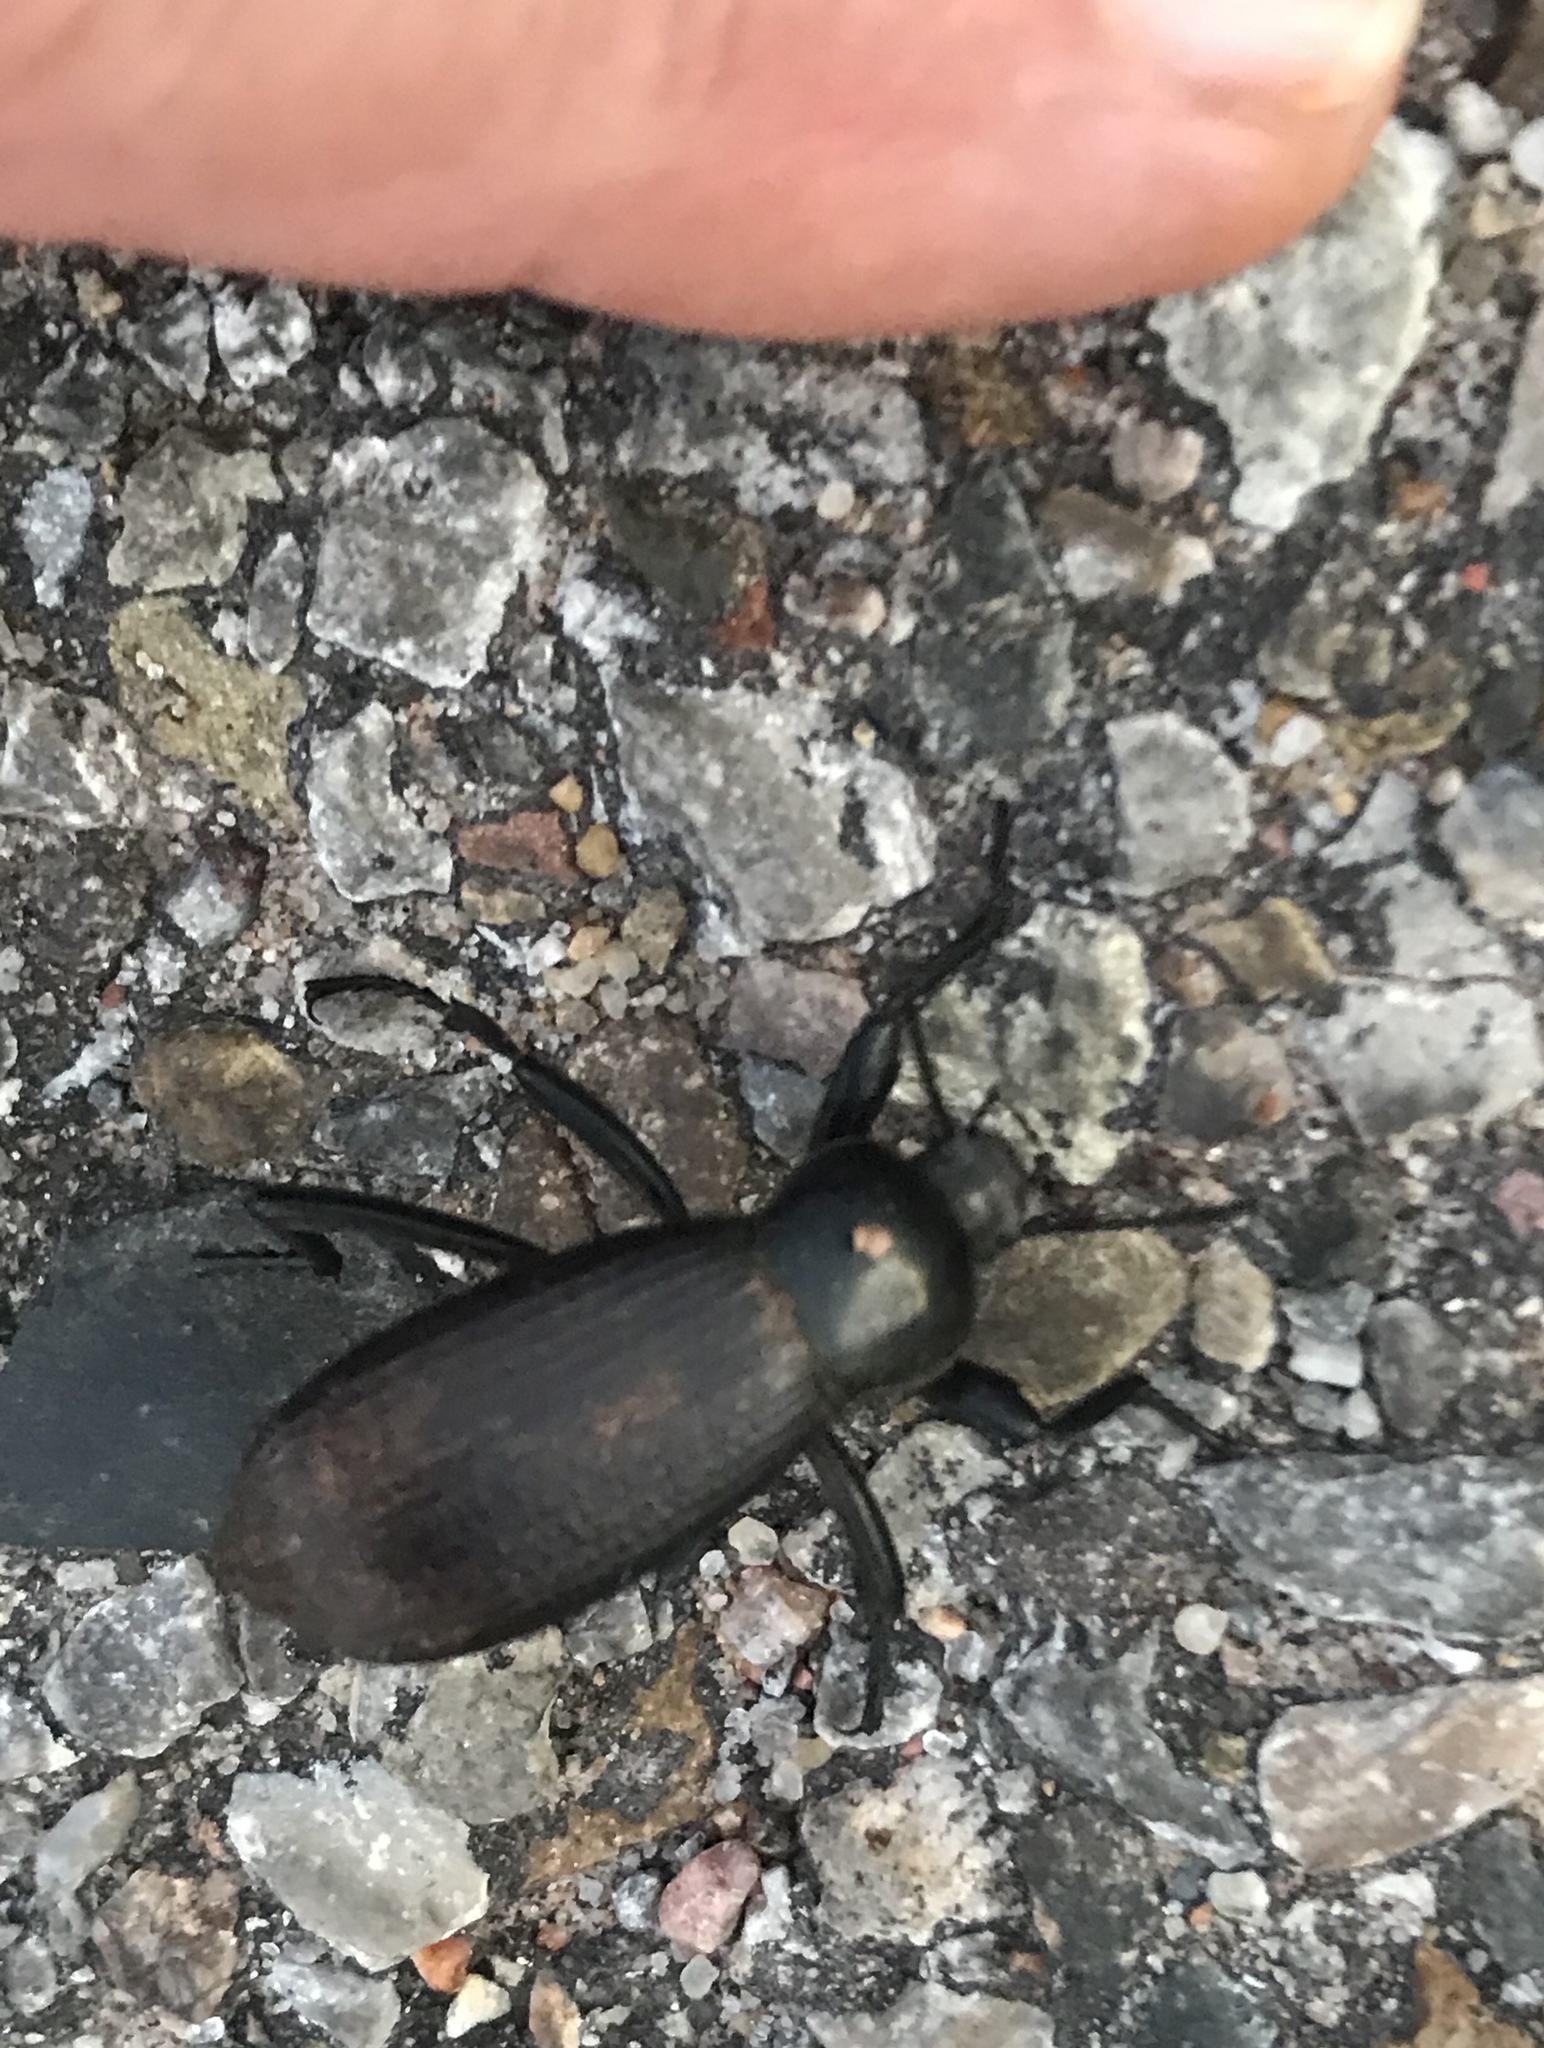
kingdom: Animalia
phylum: Arthropoda
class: Insecta
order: Coleoptera
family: Tenebrionidae
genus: Eleodes
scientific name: Eleodes obscura
